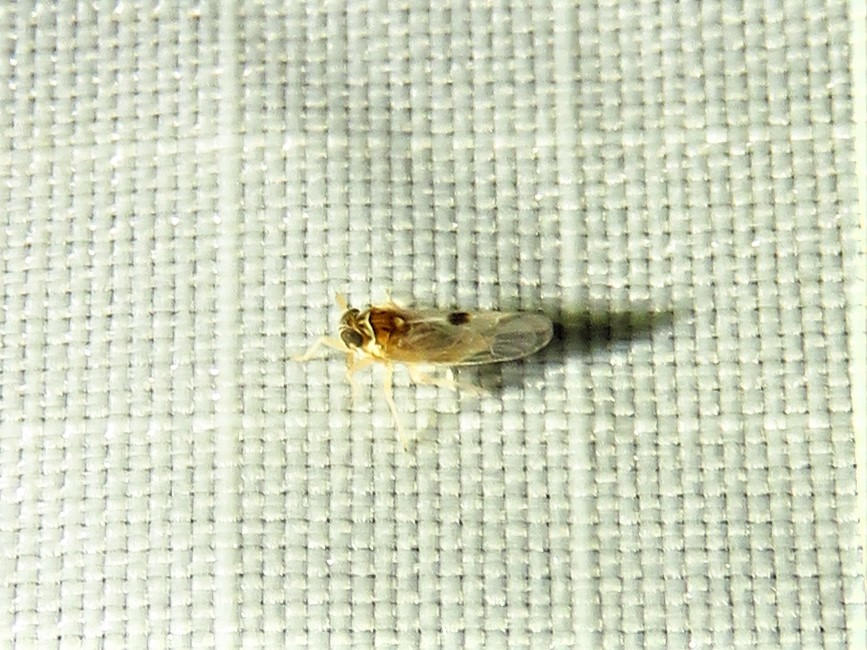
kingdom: Animalia
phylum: Arthropoda
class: Insecta
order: Hemiptera
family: Delphacidae
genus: Chionomus
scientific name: Chionomus
